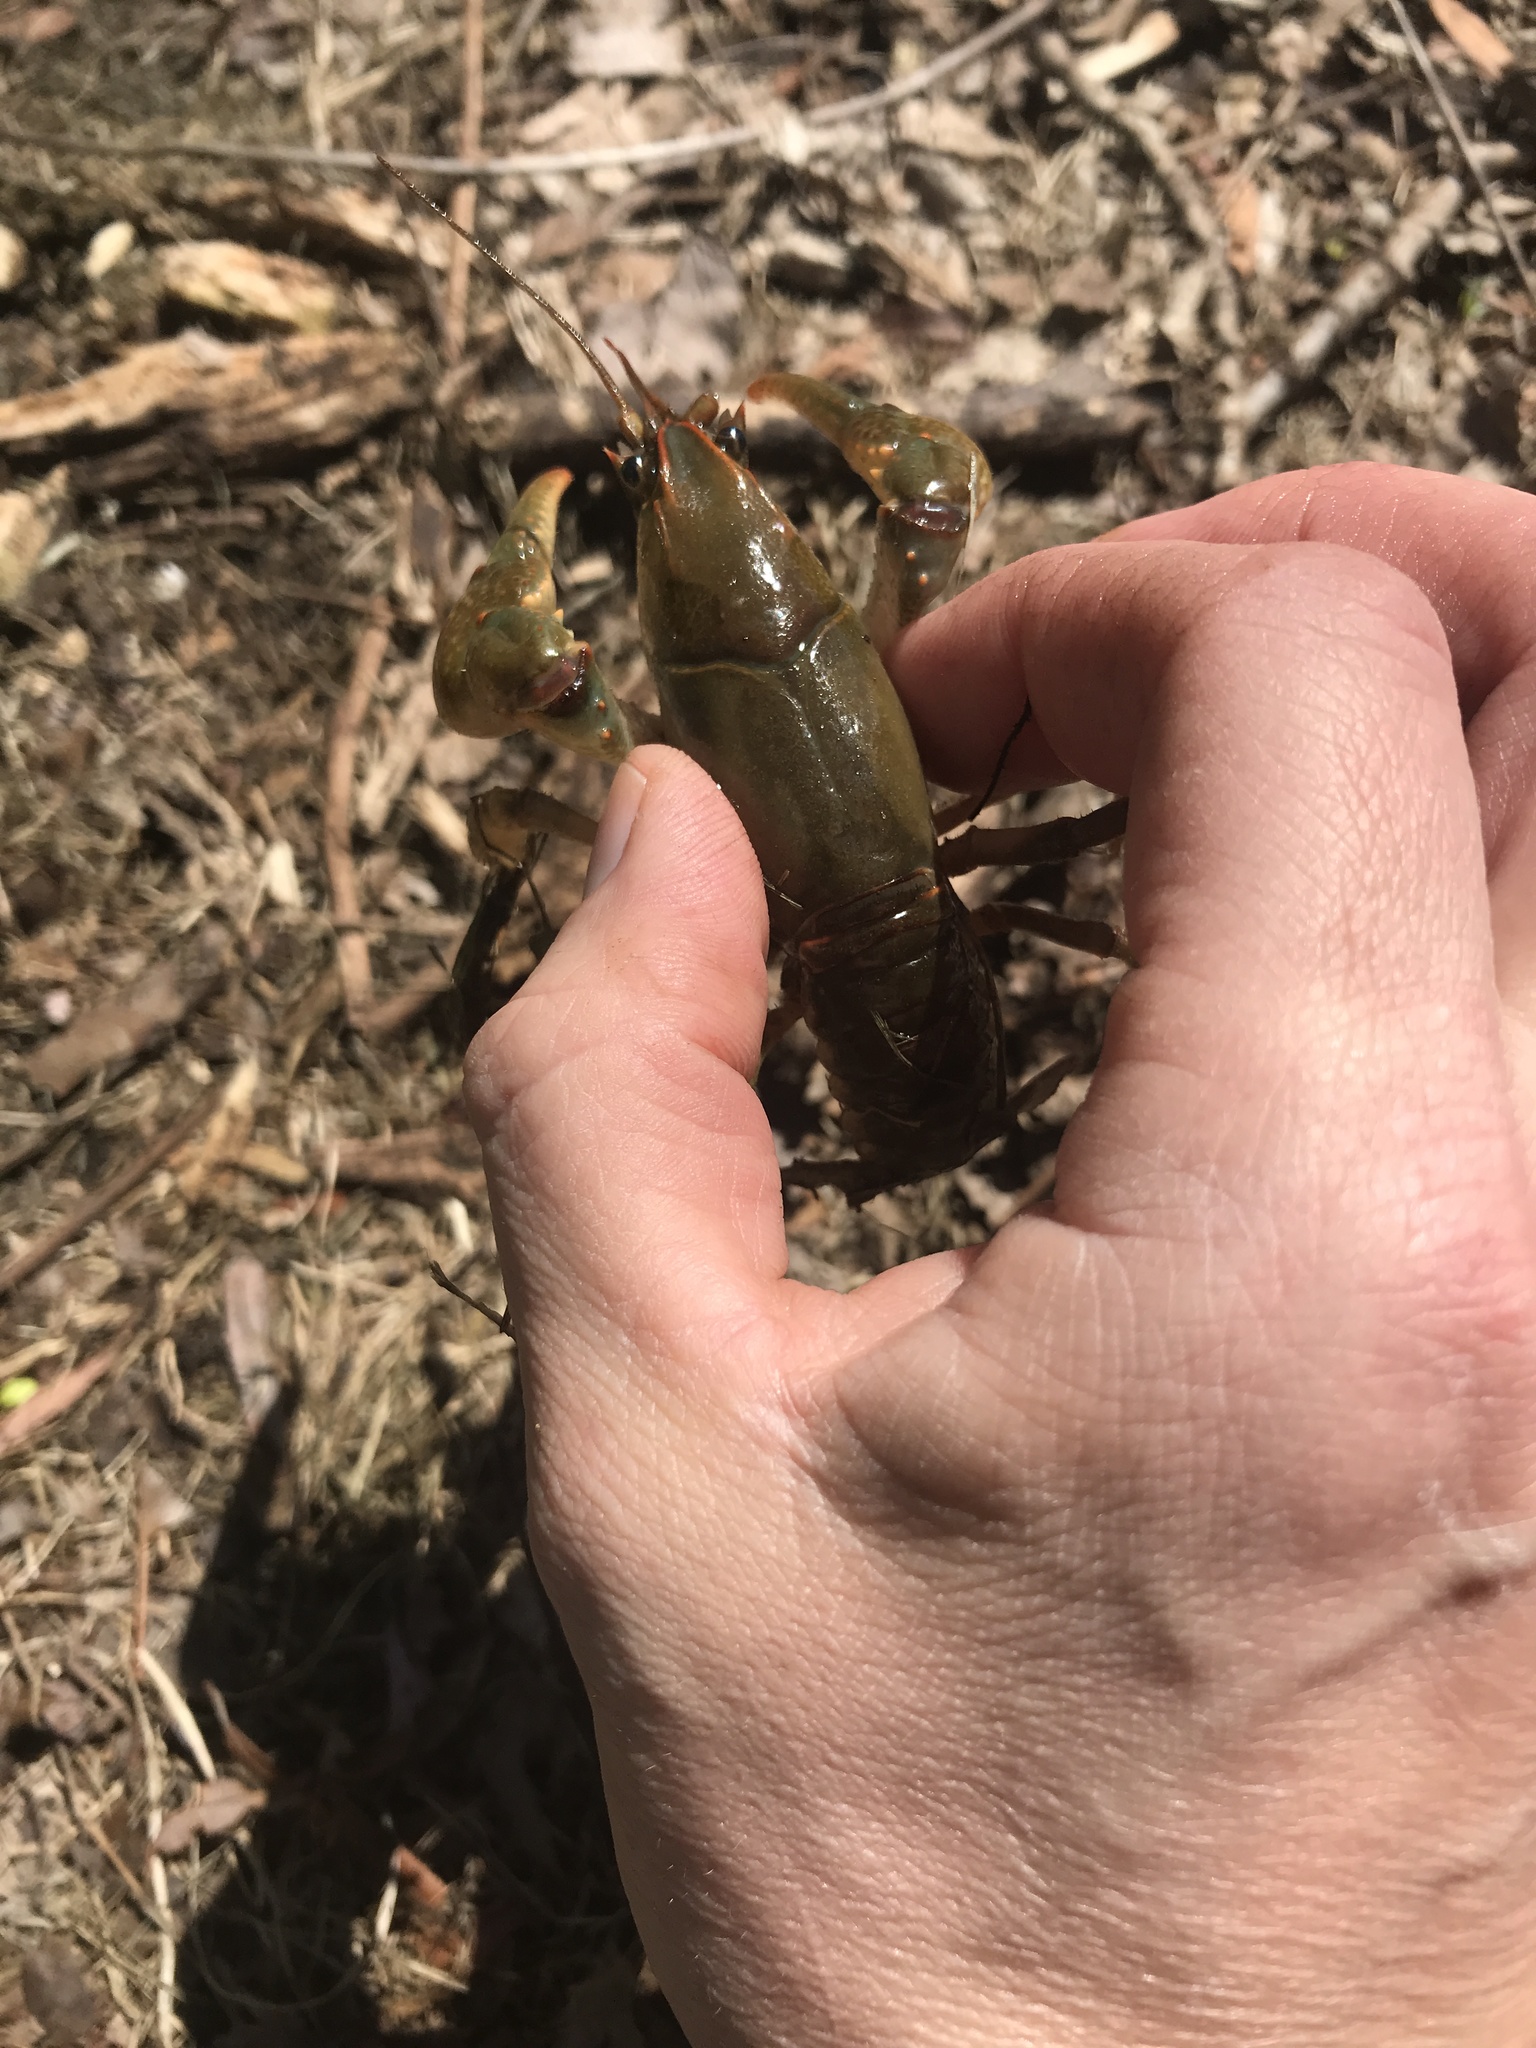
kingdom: Animalia
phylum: Arthropoda
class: Malacostraca
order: Decapoda
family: Cambaridae
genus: Lacunicambarus
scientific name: Lacunicambarus polychromatus
